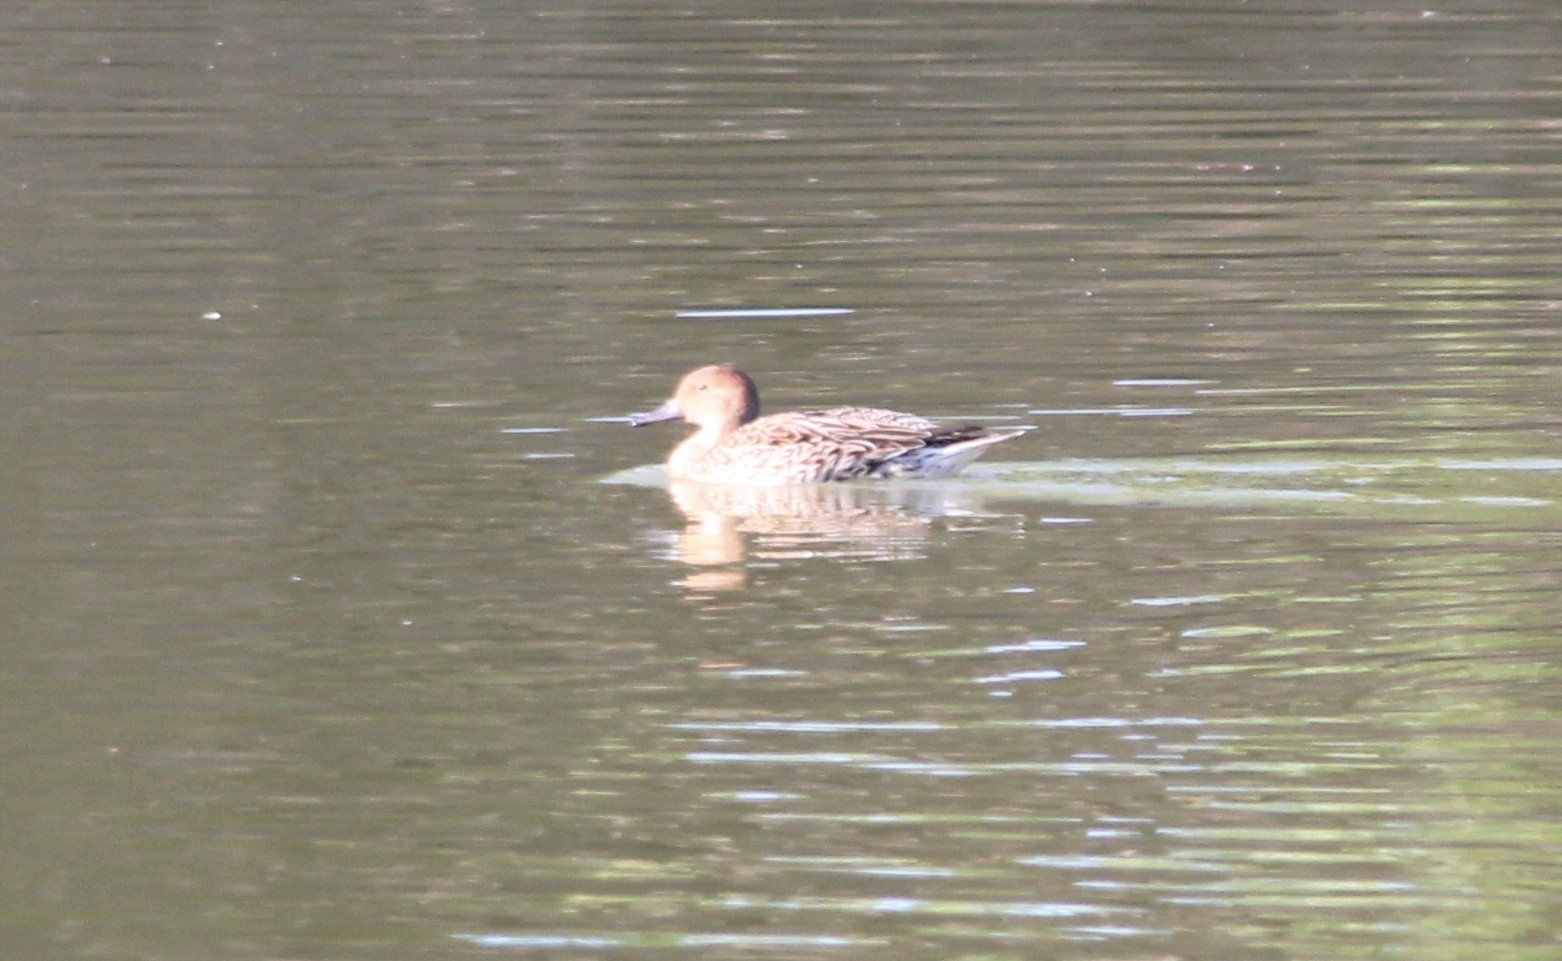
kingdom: Animalia
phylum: Chordata
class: Aves
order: Anseriformes
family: Anatidae
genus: Anas
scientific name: Anas acuta
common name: Northern pintail
